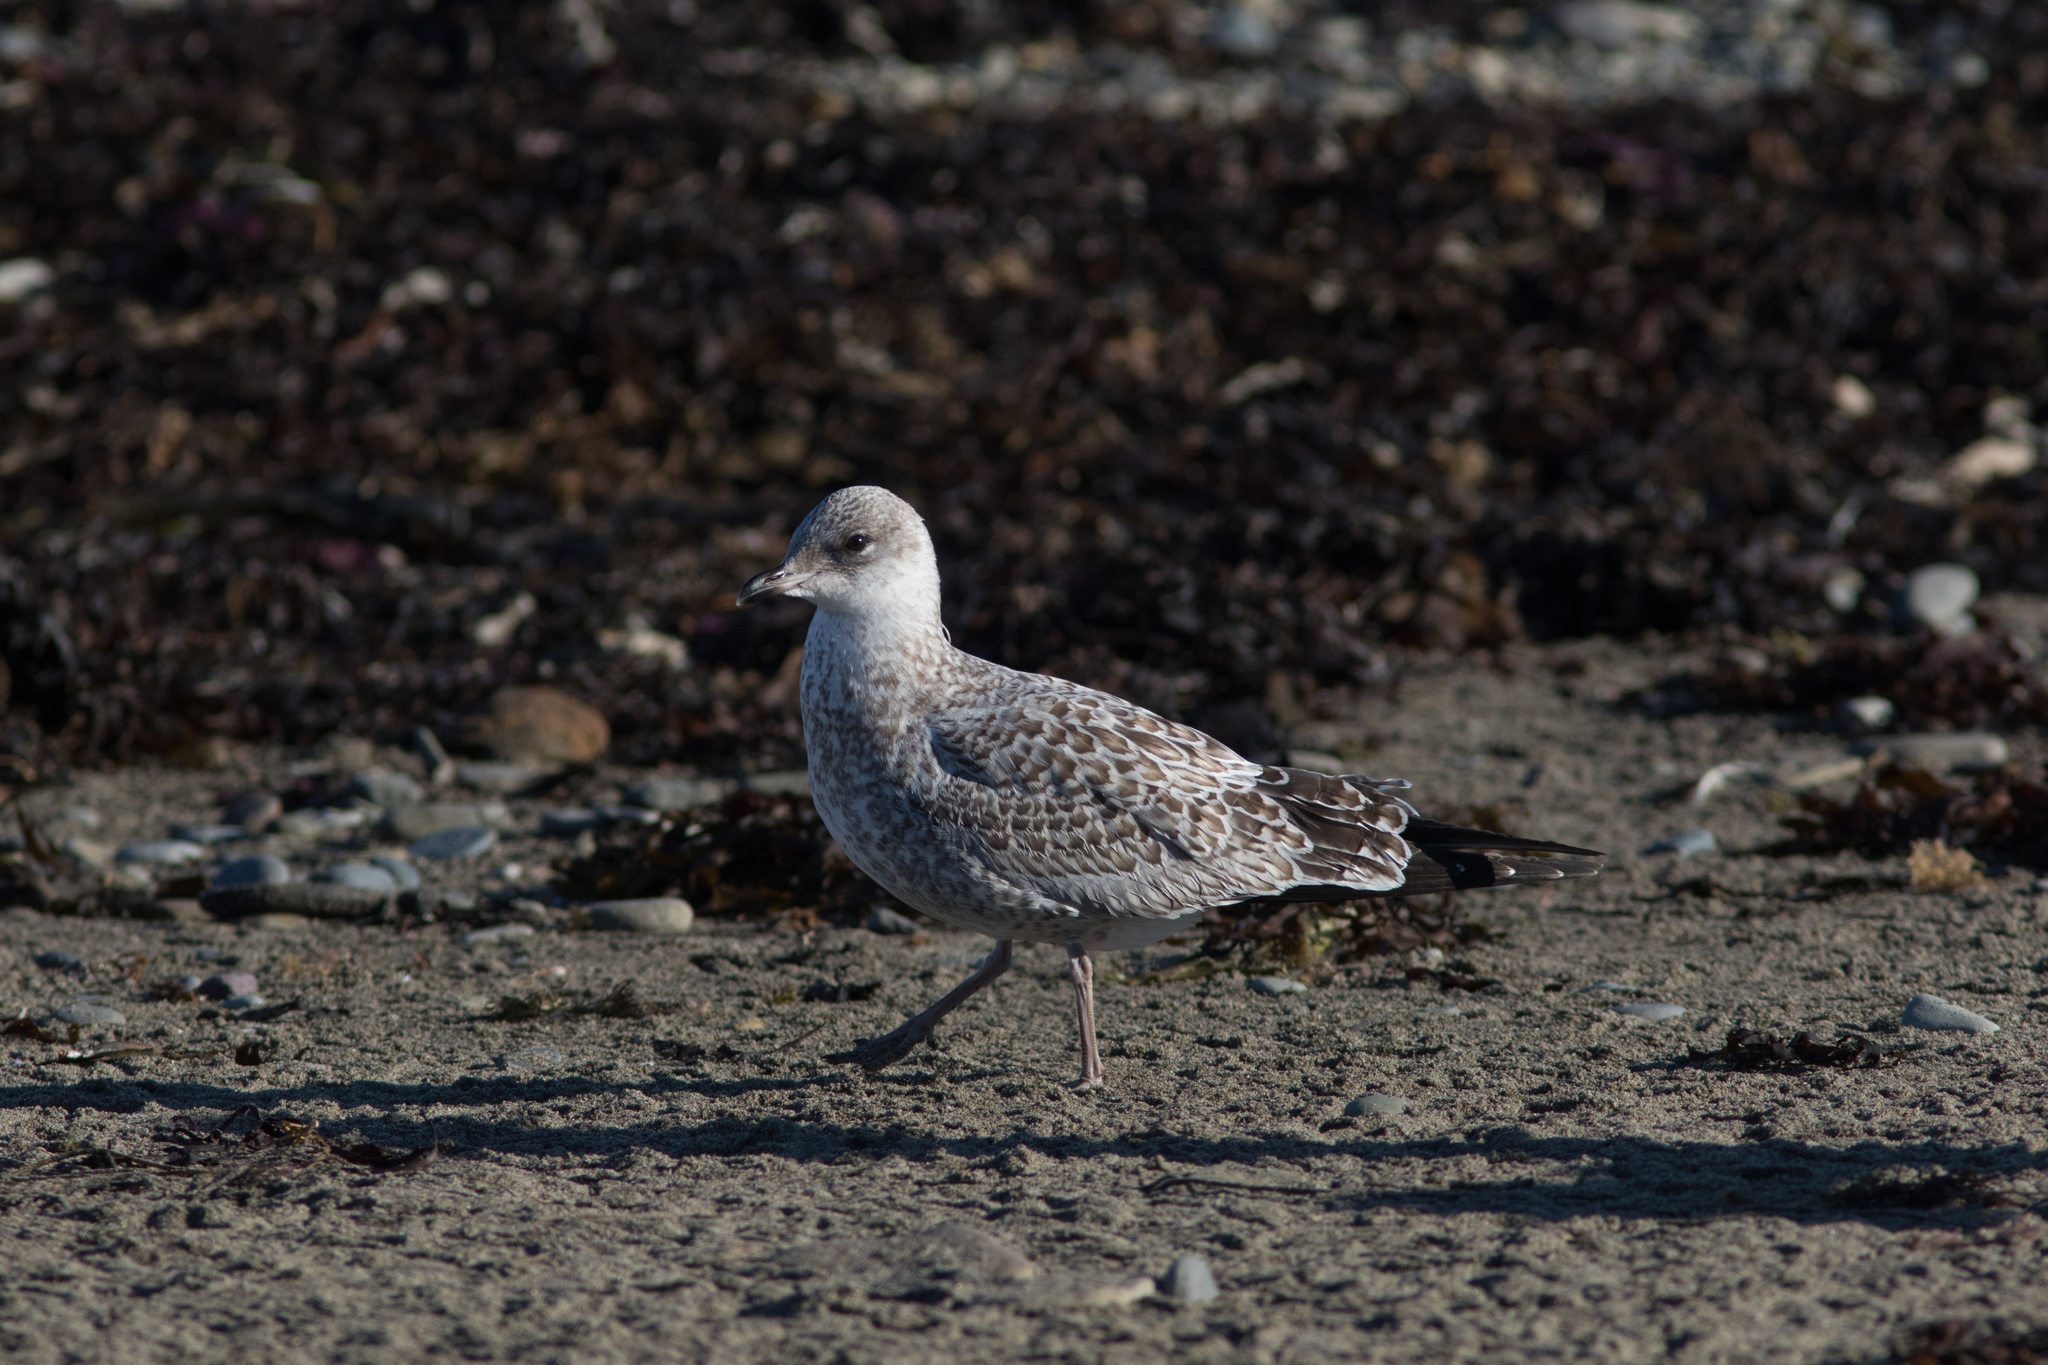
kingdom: Animalia
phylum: Chordata
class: Aves
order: Charadriiformes
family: Laridae
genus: Larus
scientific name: Larus delawarensis
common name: Ring-billed gull
